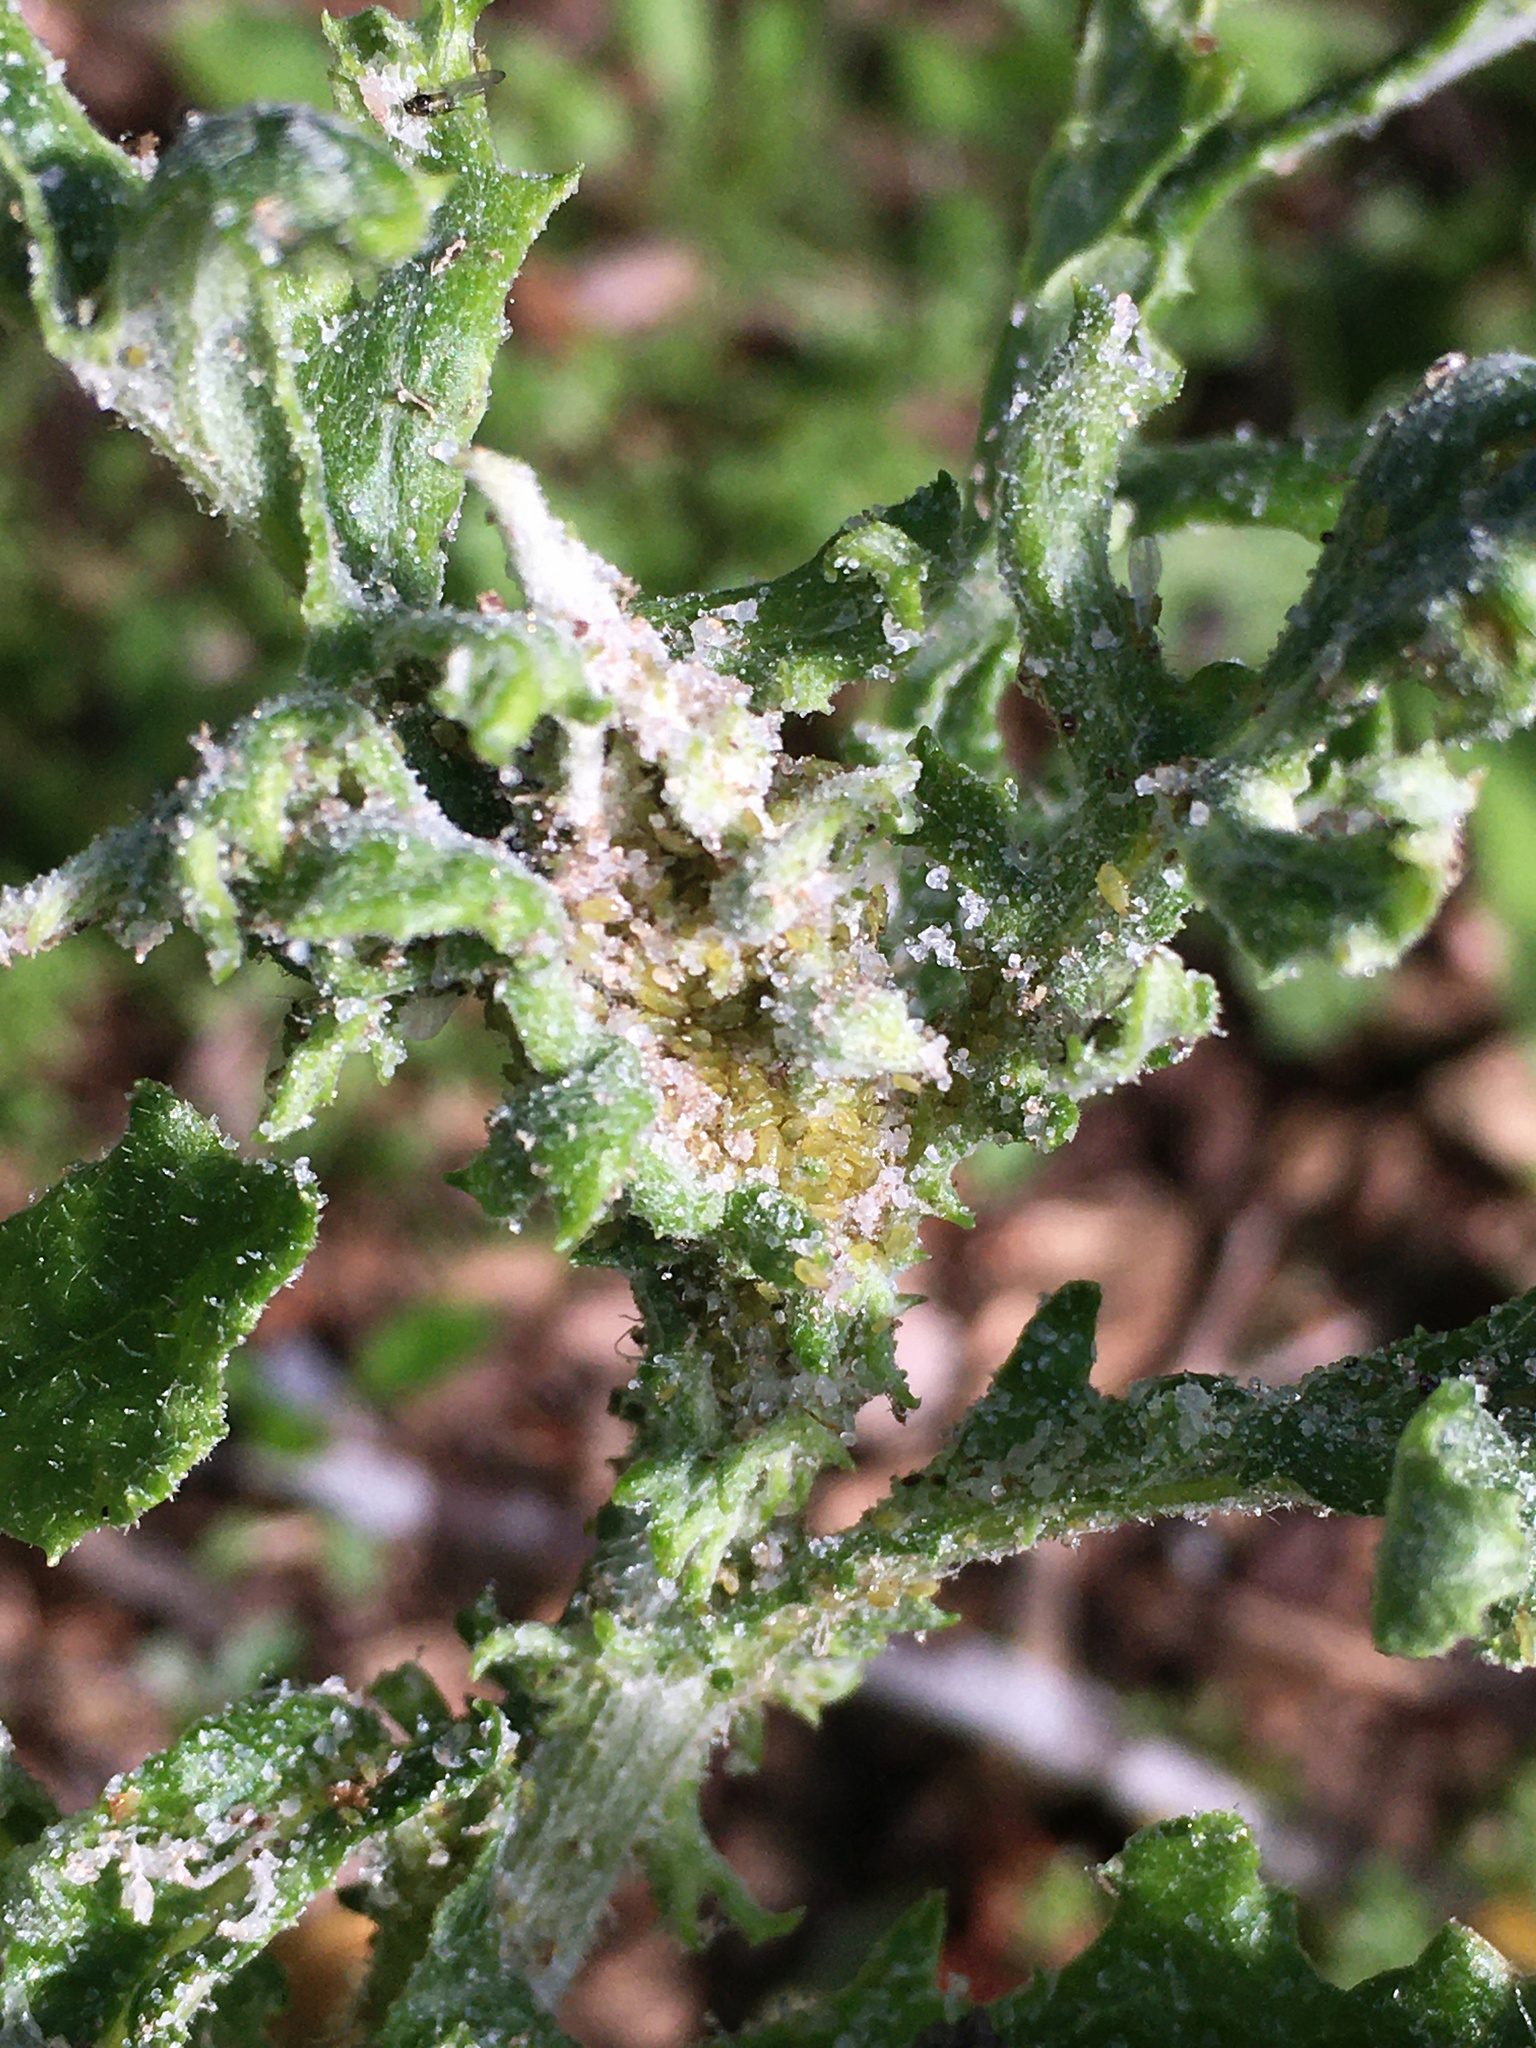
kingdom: Plantae
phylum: Tracheophyta
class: Magnoliopsida
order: Asterales
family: Asteraceae
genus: Senecio
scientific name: Senecio glomeratus
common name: Cutleaf burnweed
